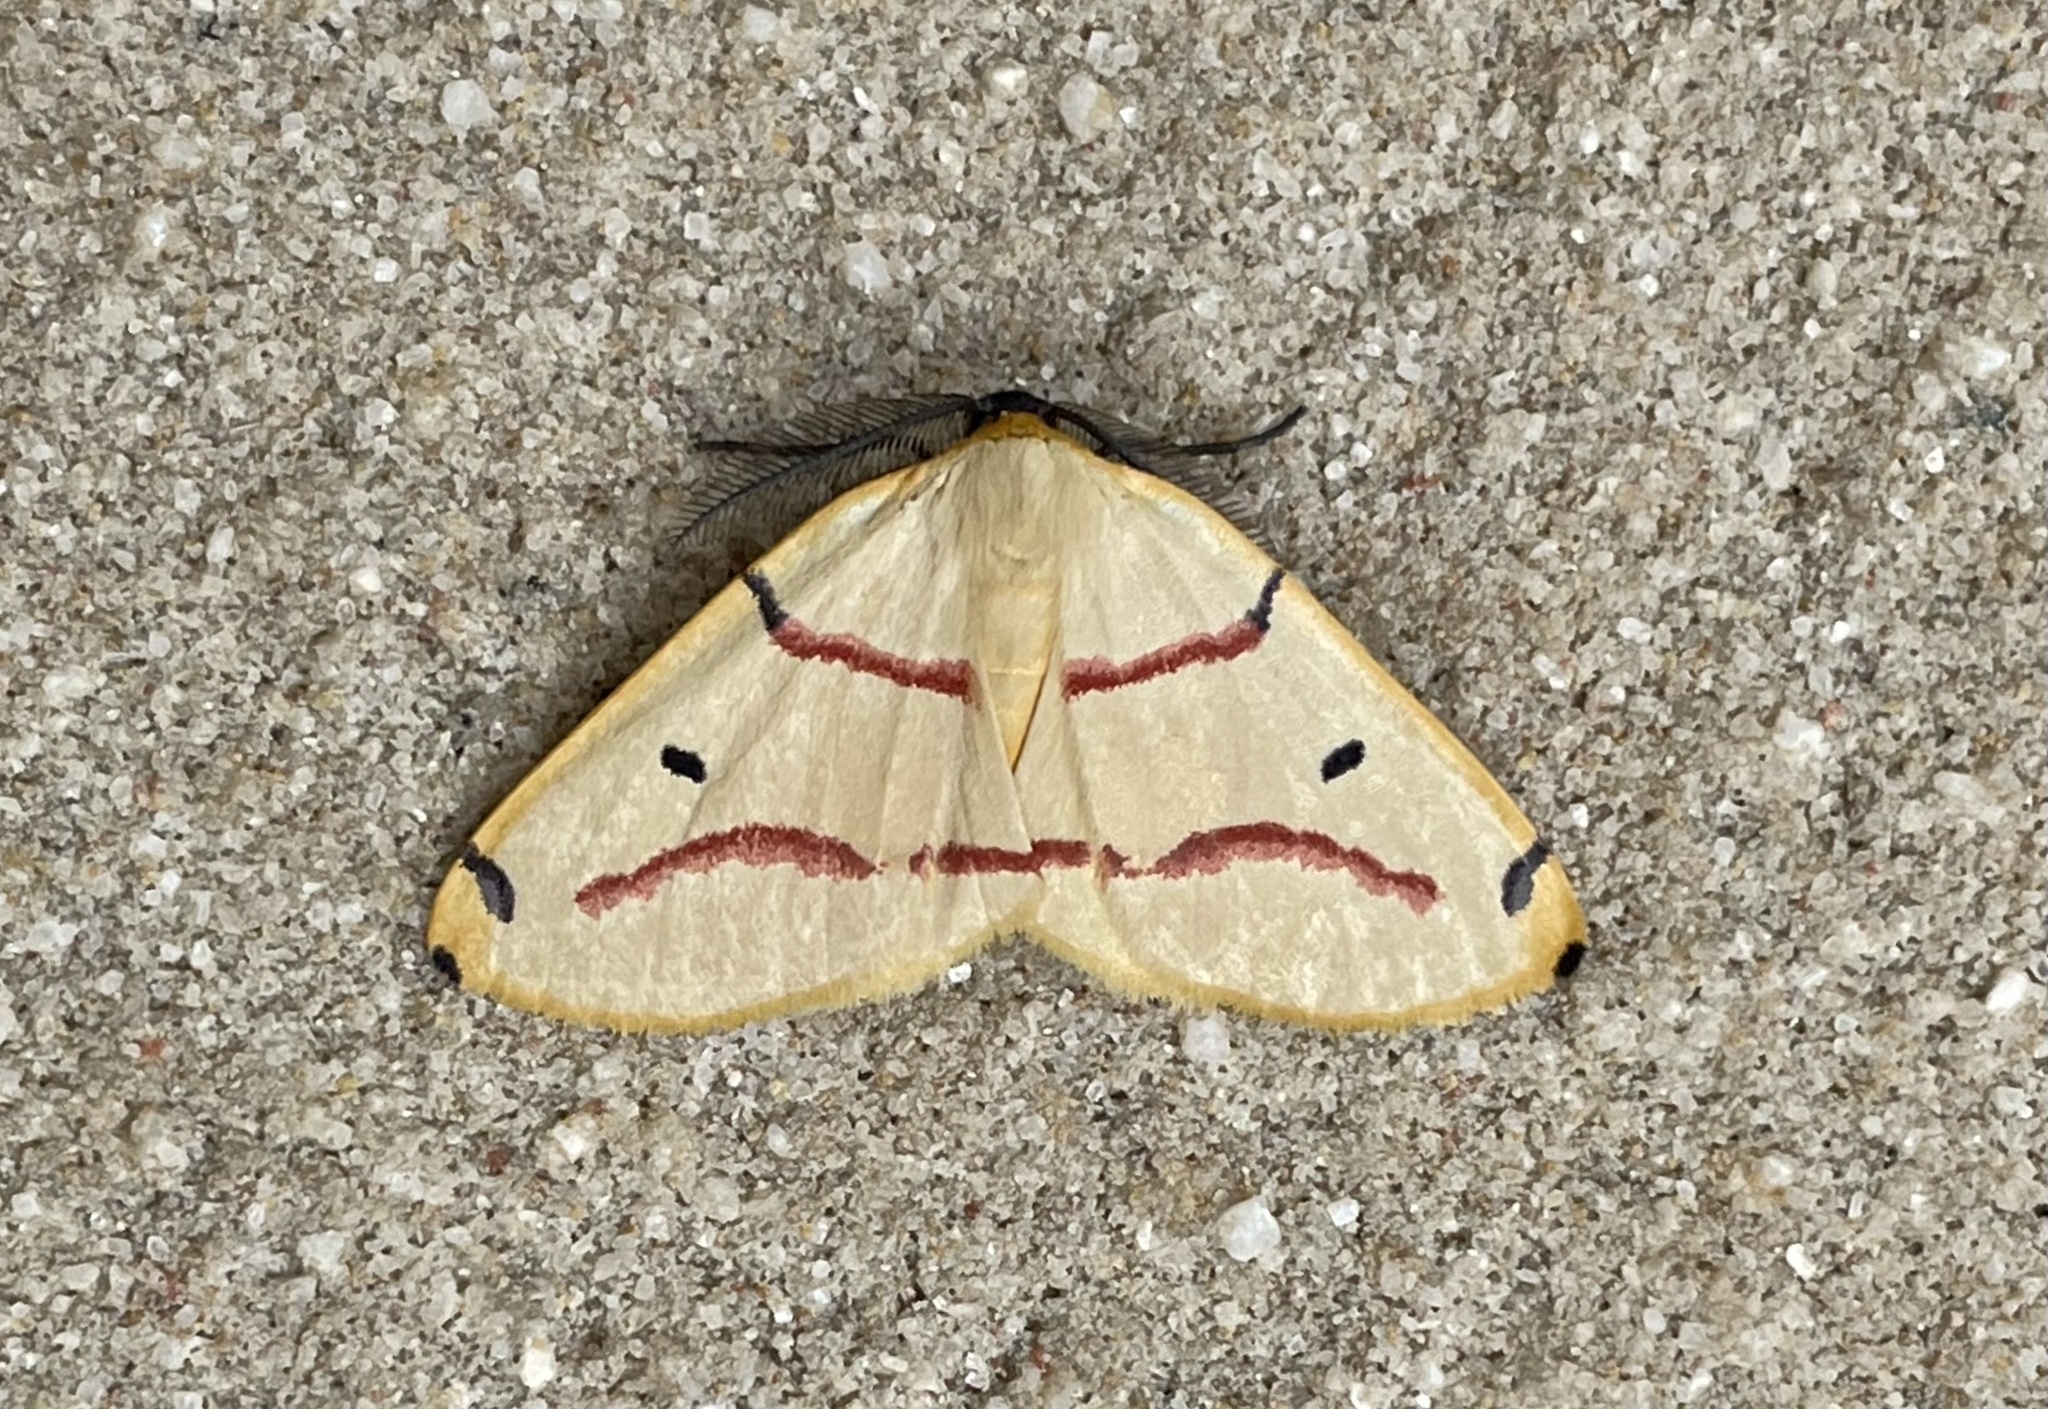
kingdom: Animalia
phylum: Arthropoda
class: Insecta
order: Lepidoptera
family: Geometridae
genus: Omizodes
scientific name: Omizodes rubrifasciata
